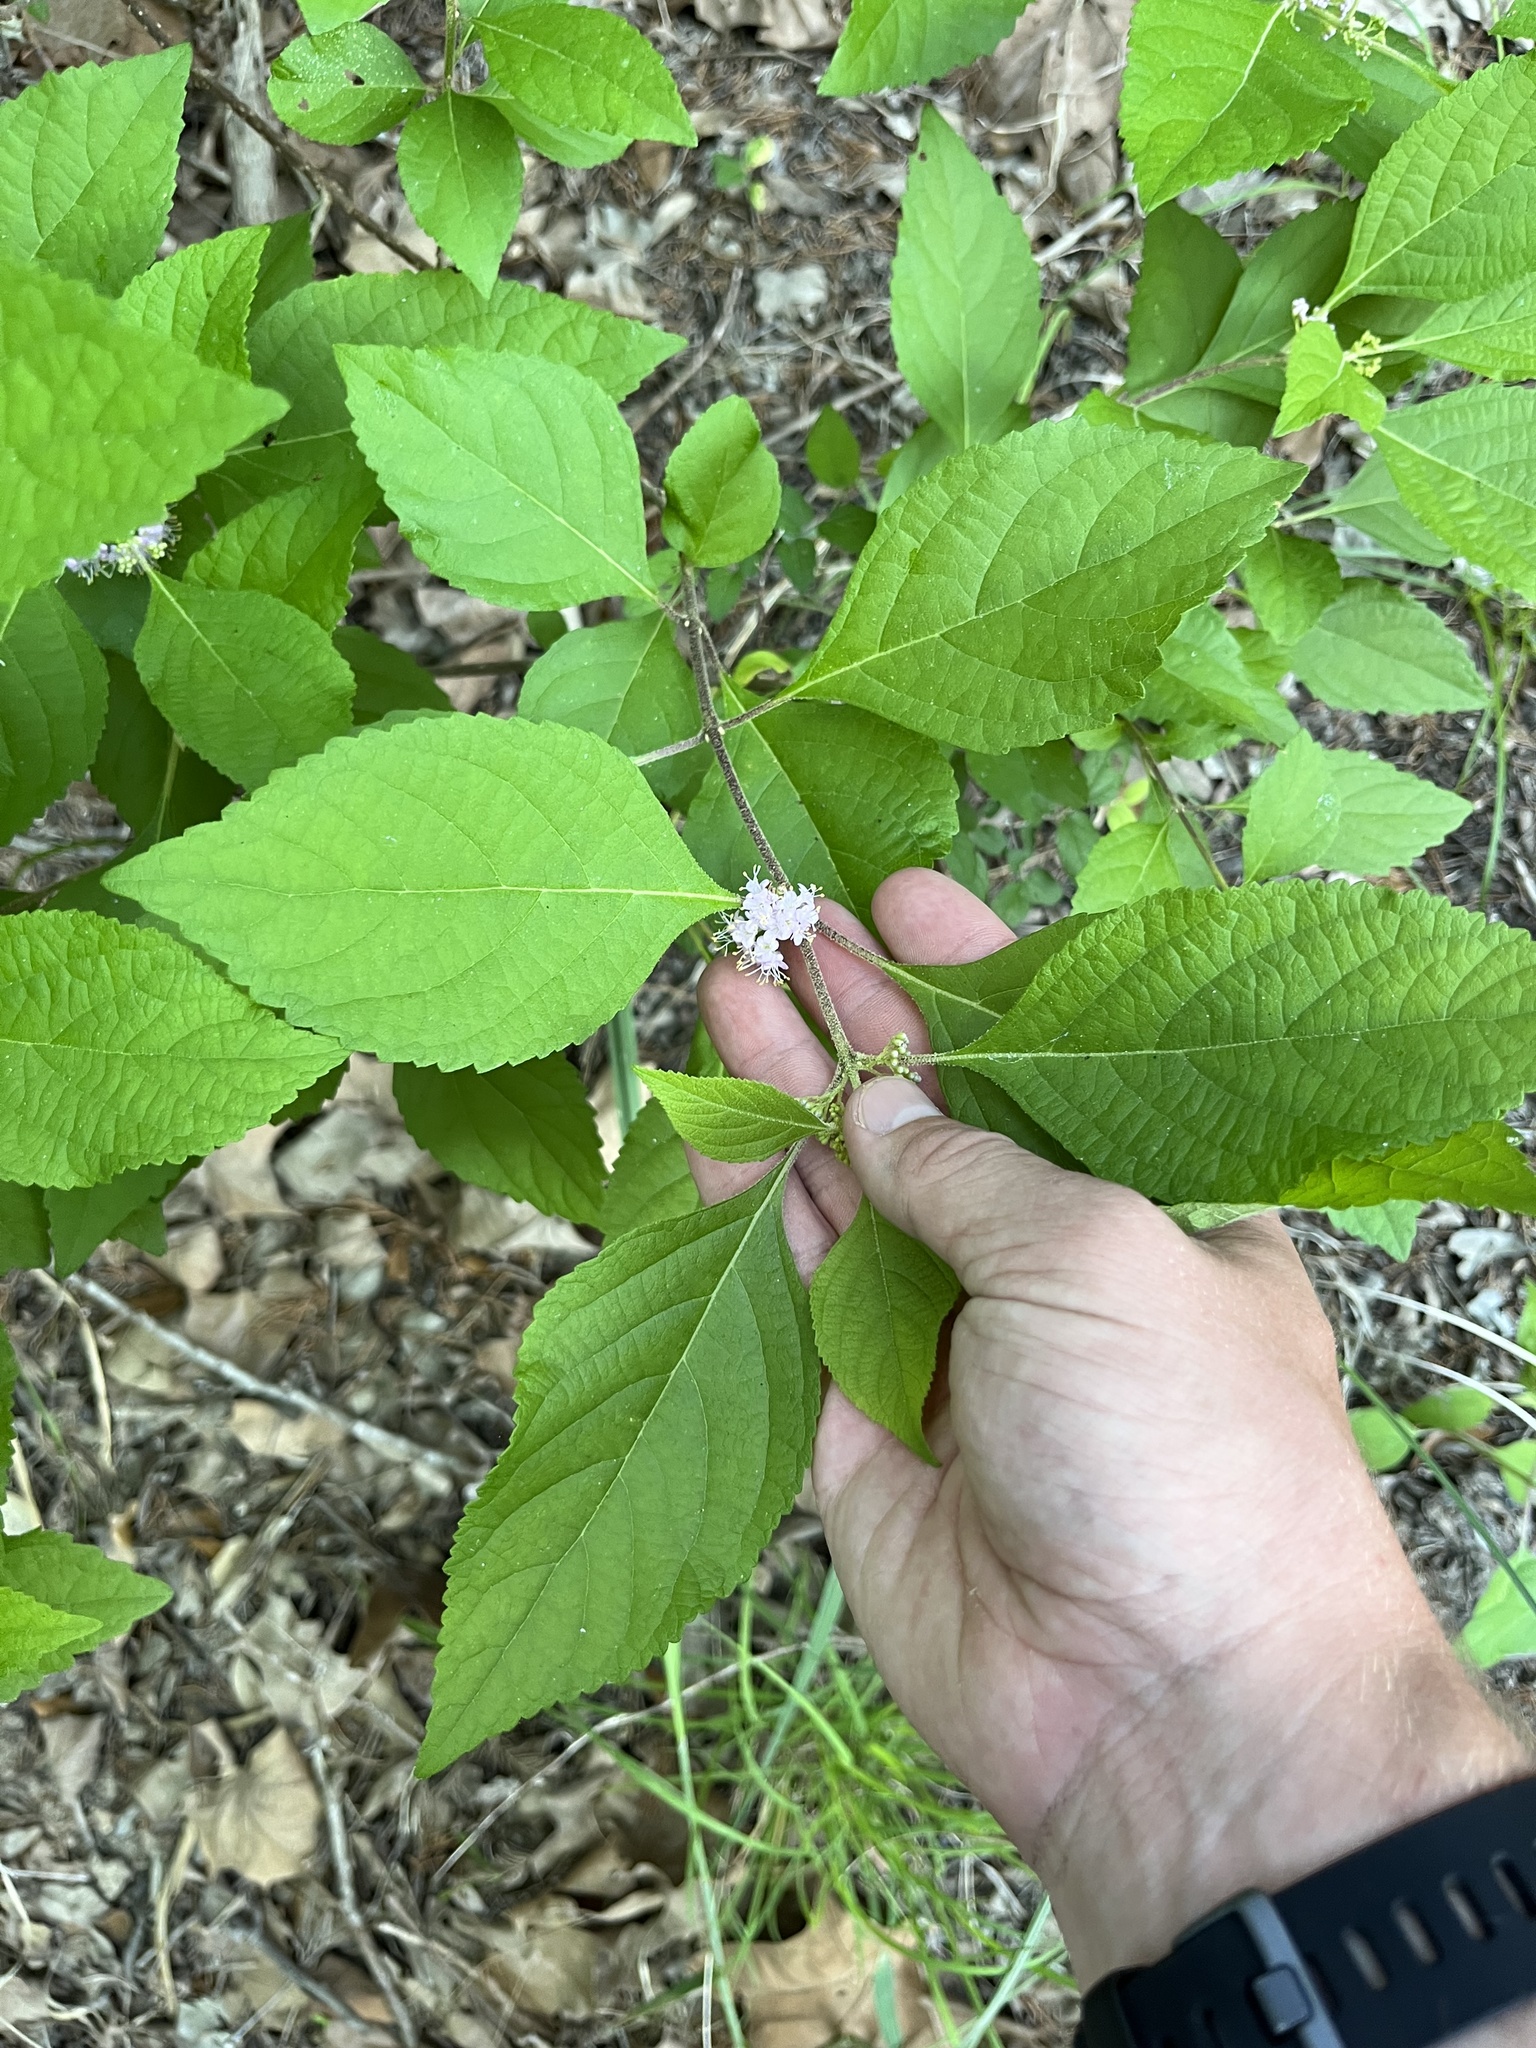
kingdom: Plantae
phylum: Tracheophyta
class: Magnoliopsida
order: Lamiales
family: Lamiaceae
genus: Callicarpa
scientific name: Callicarpa americana
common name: American beautyberry
